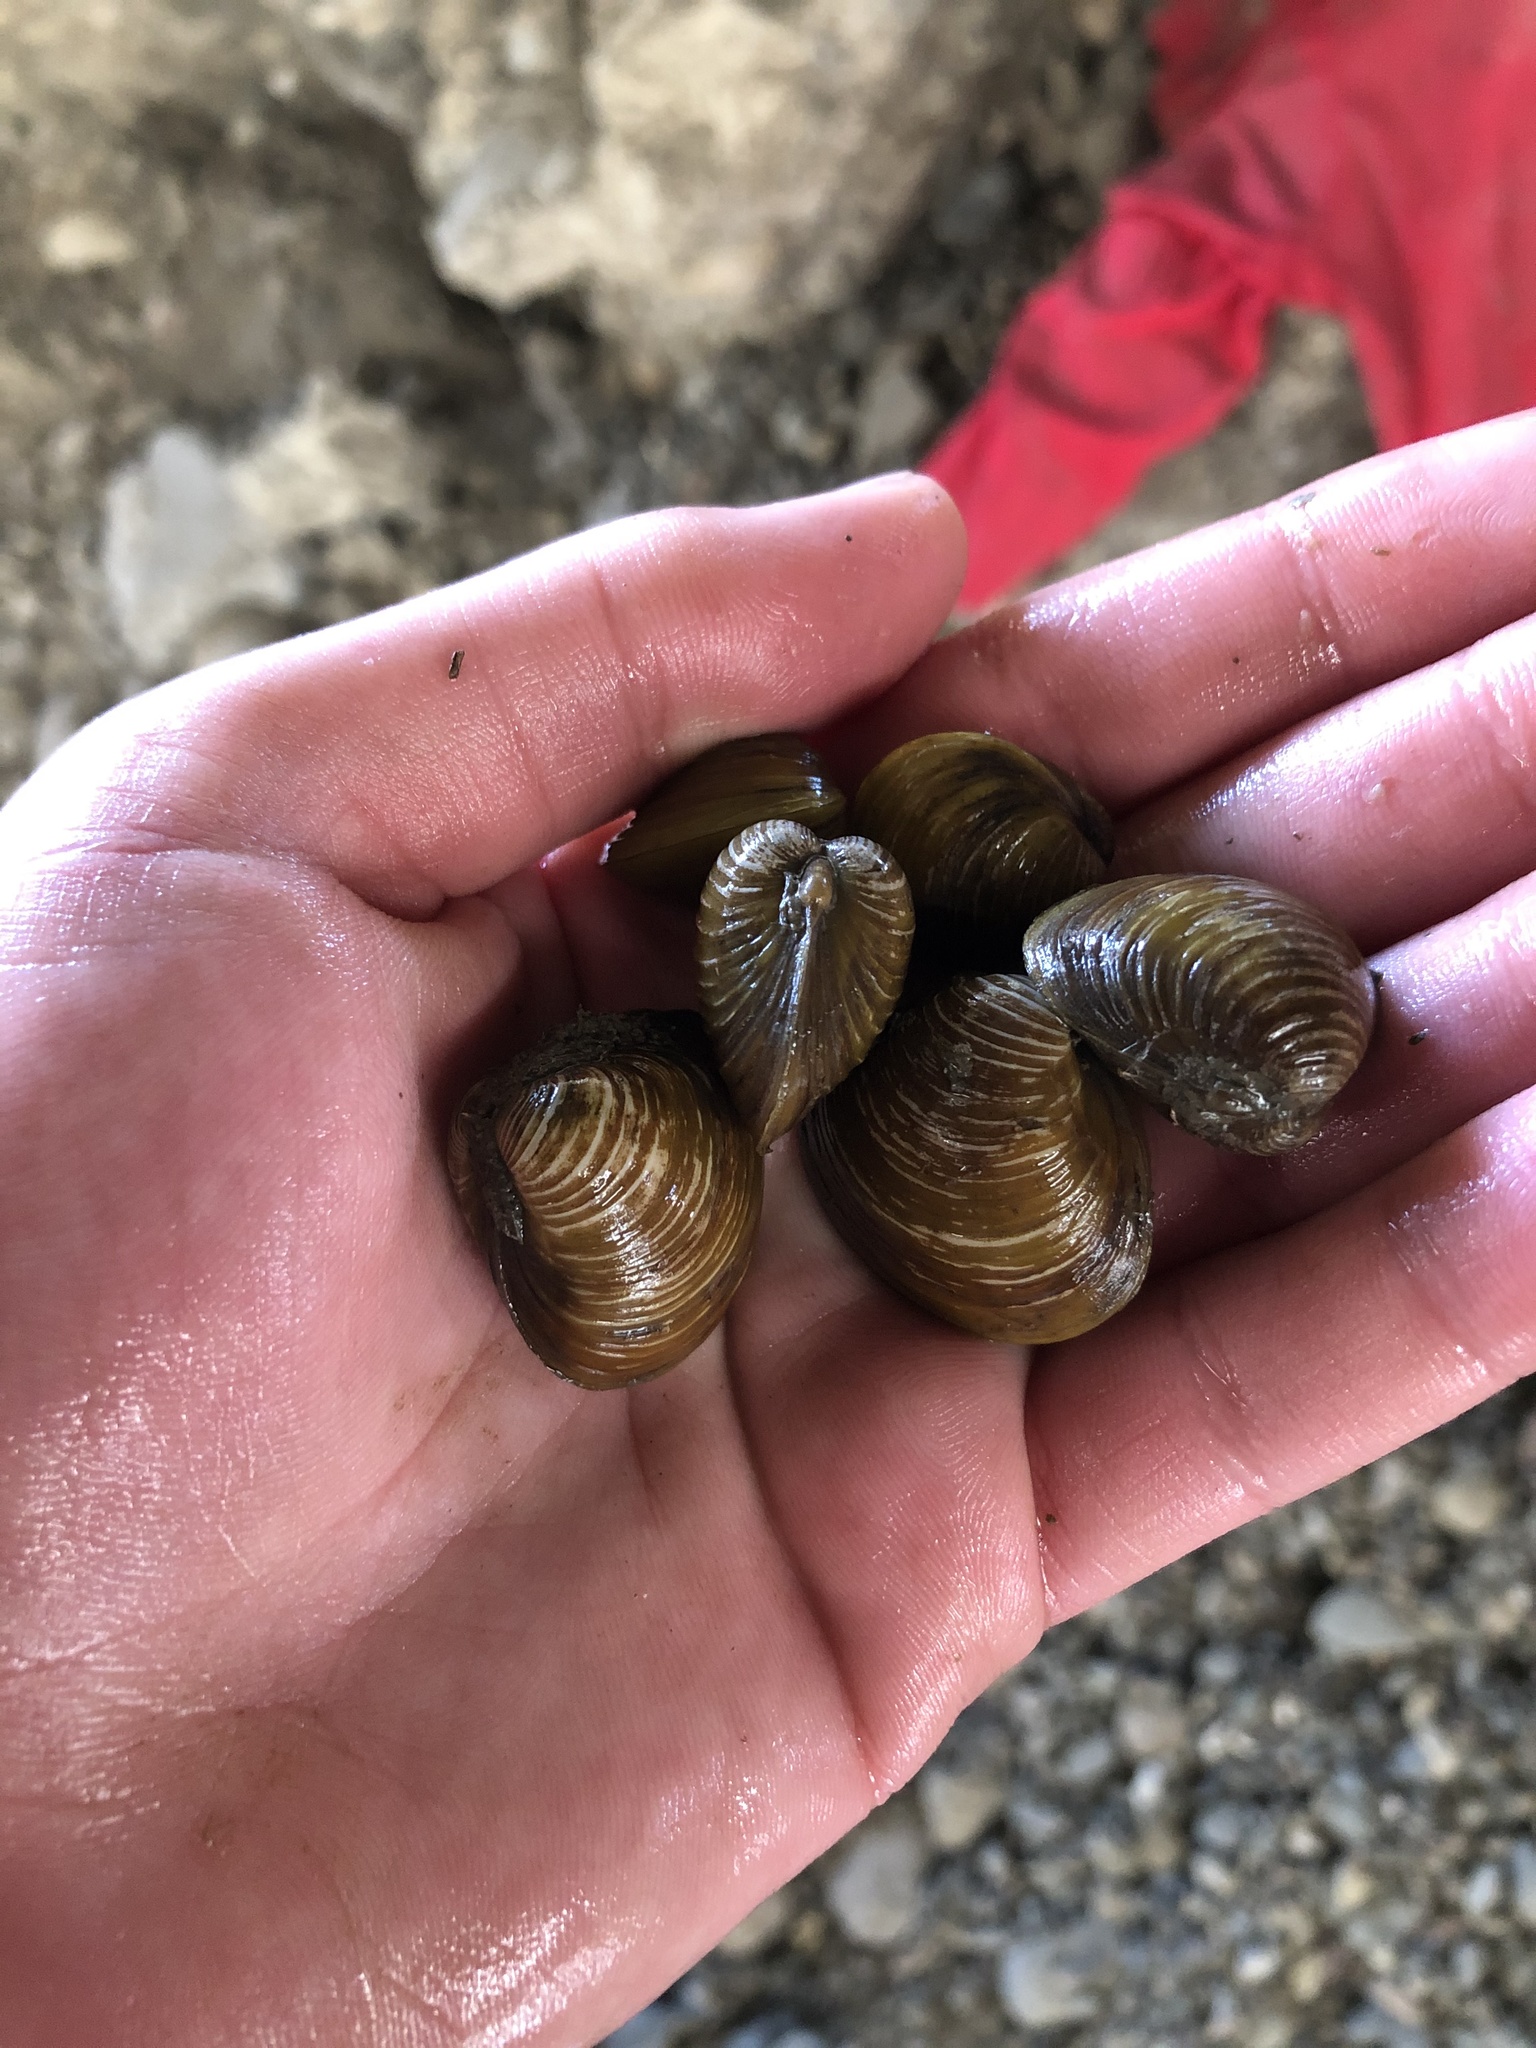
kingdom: Animalia
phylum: Mollusca
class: Bivalvia
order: Venerida
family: Cyrenidae
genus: Corbicula
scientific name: Corbicula fluminea
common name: Asian clam
